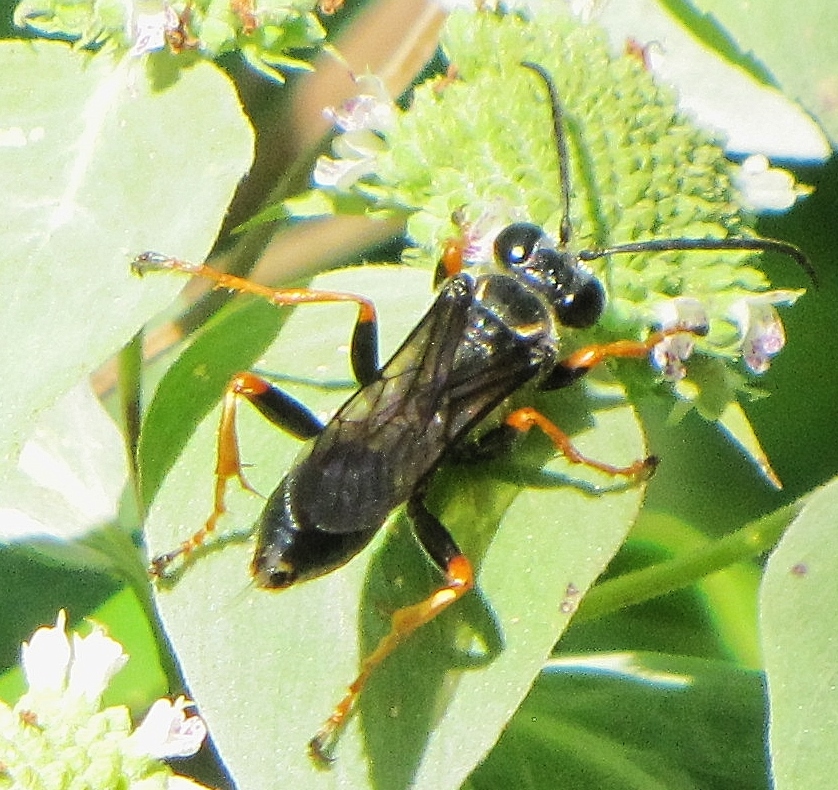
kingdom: Animalia
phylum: Arthropoda
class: Insecta
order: Hymenoptera
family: Sphecidae
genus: Sphex
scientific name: Sphex nudus
